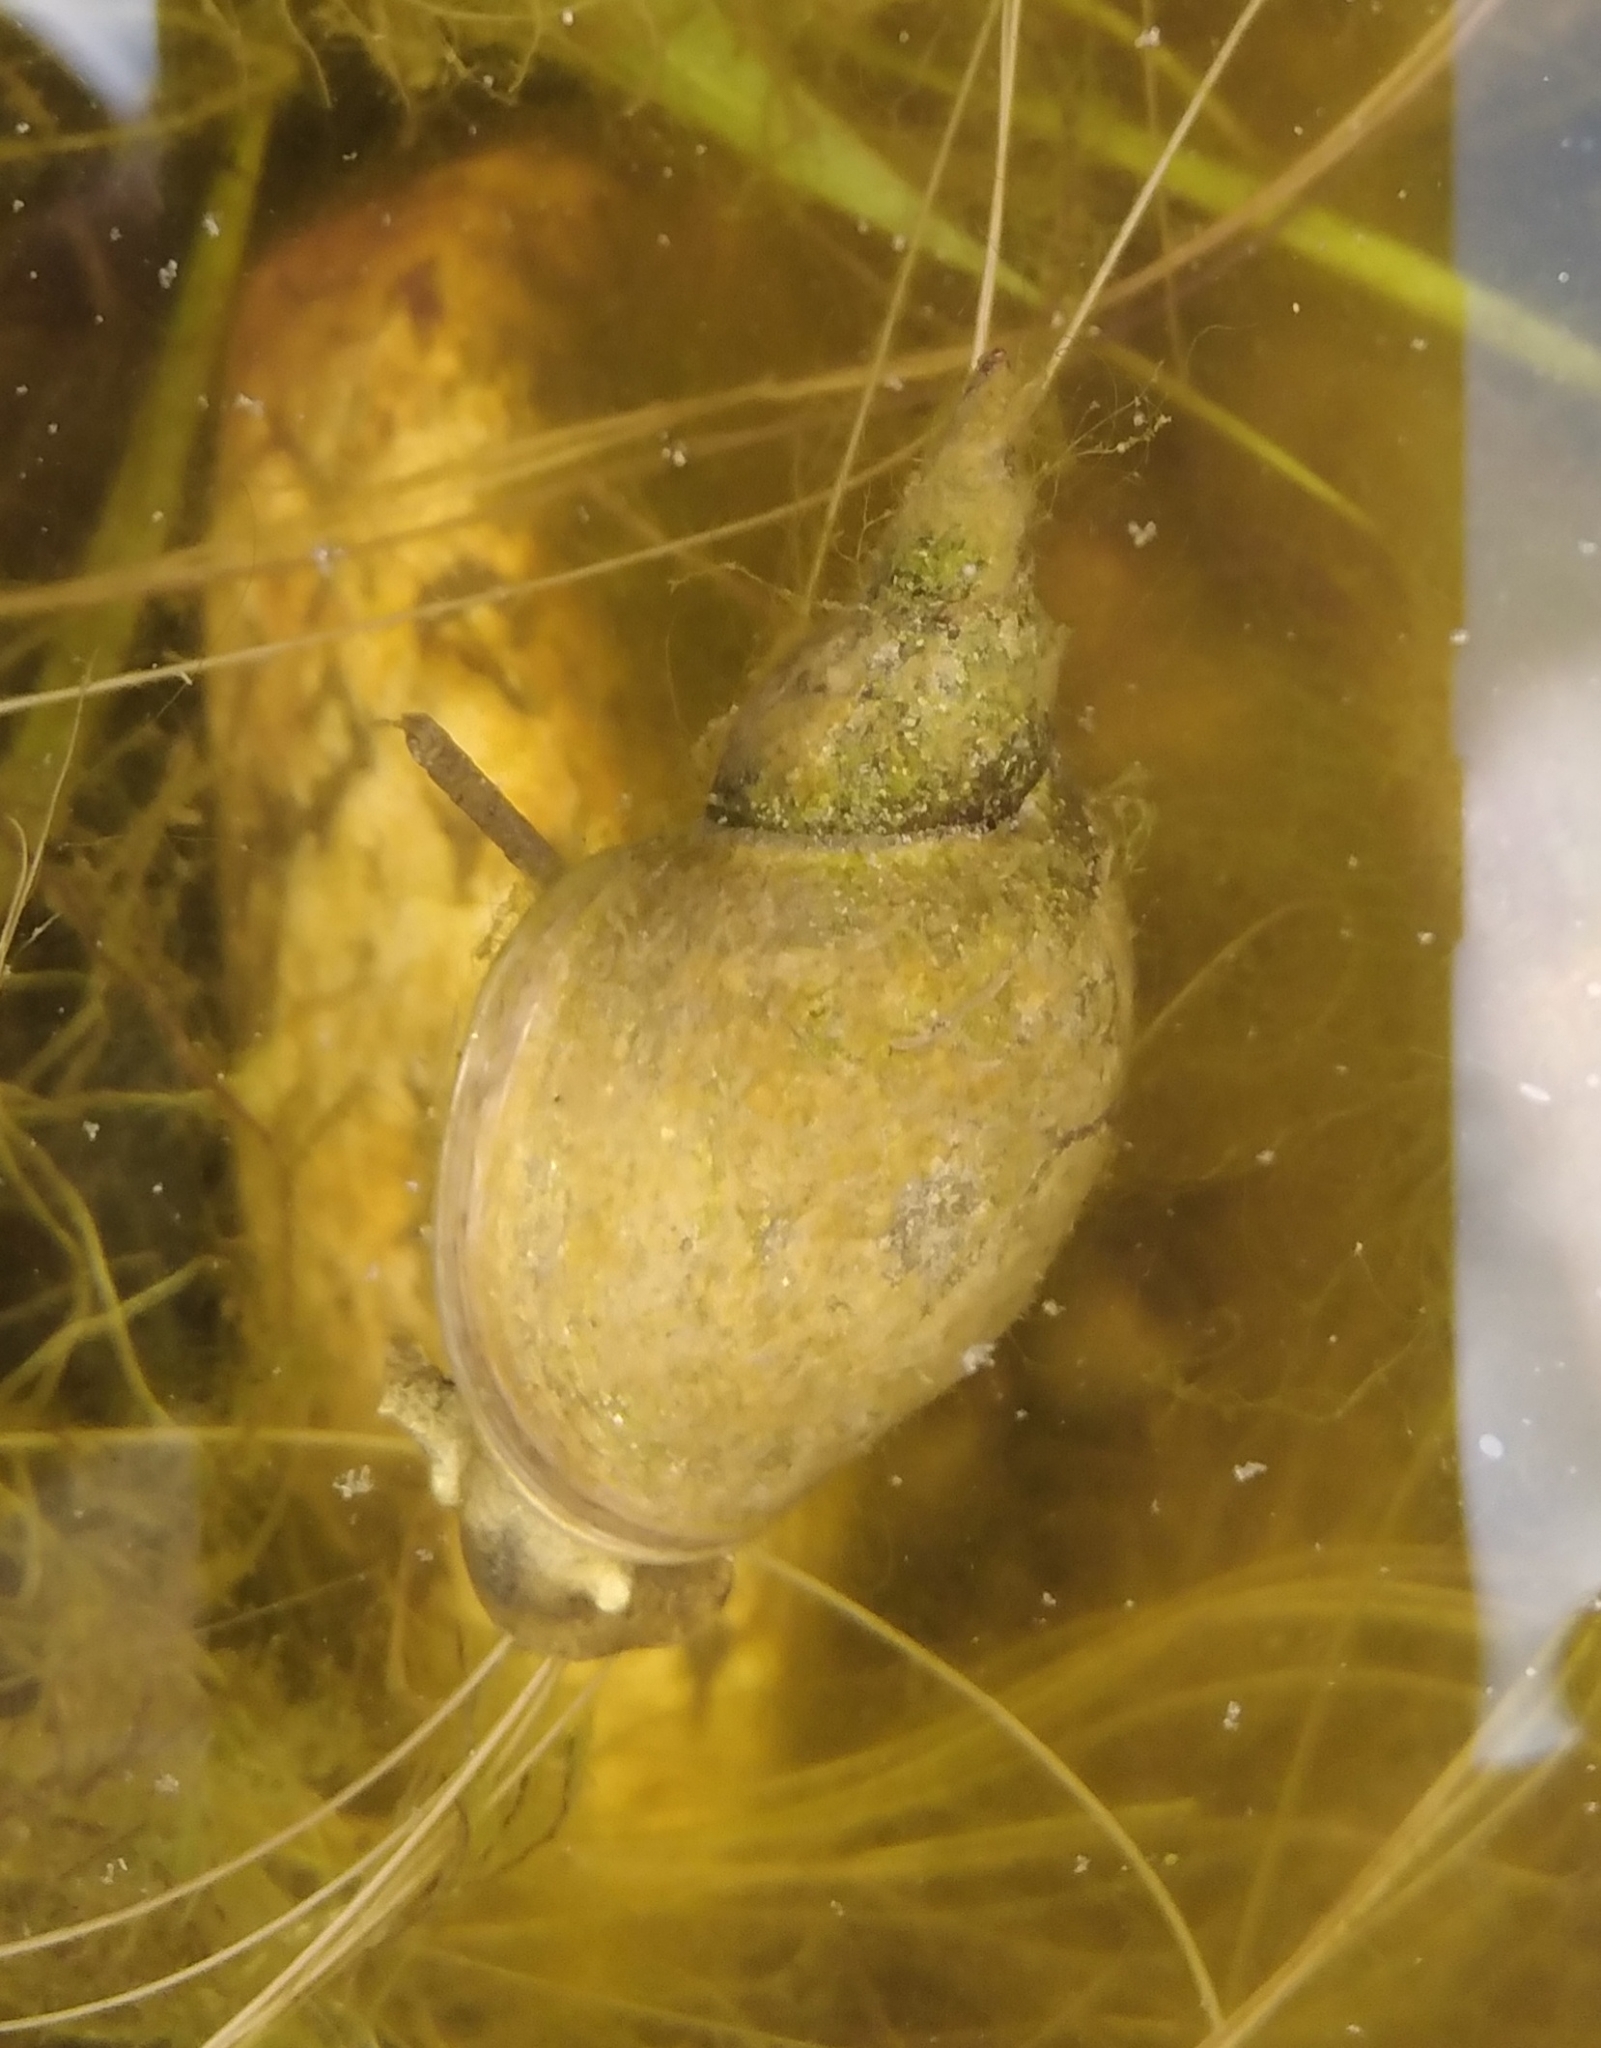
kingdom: Animalia
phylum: Mollusca
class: Gastropoda
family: Lymnaeidae
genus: Lymnaea
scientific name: Lymnaea stagnalis
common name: Great pond snail
